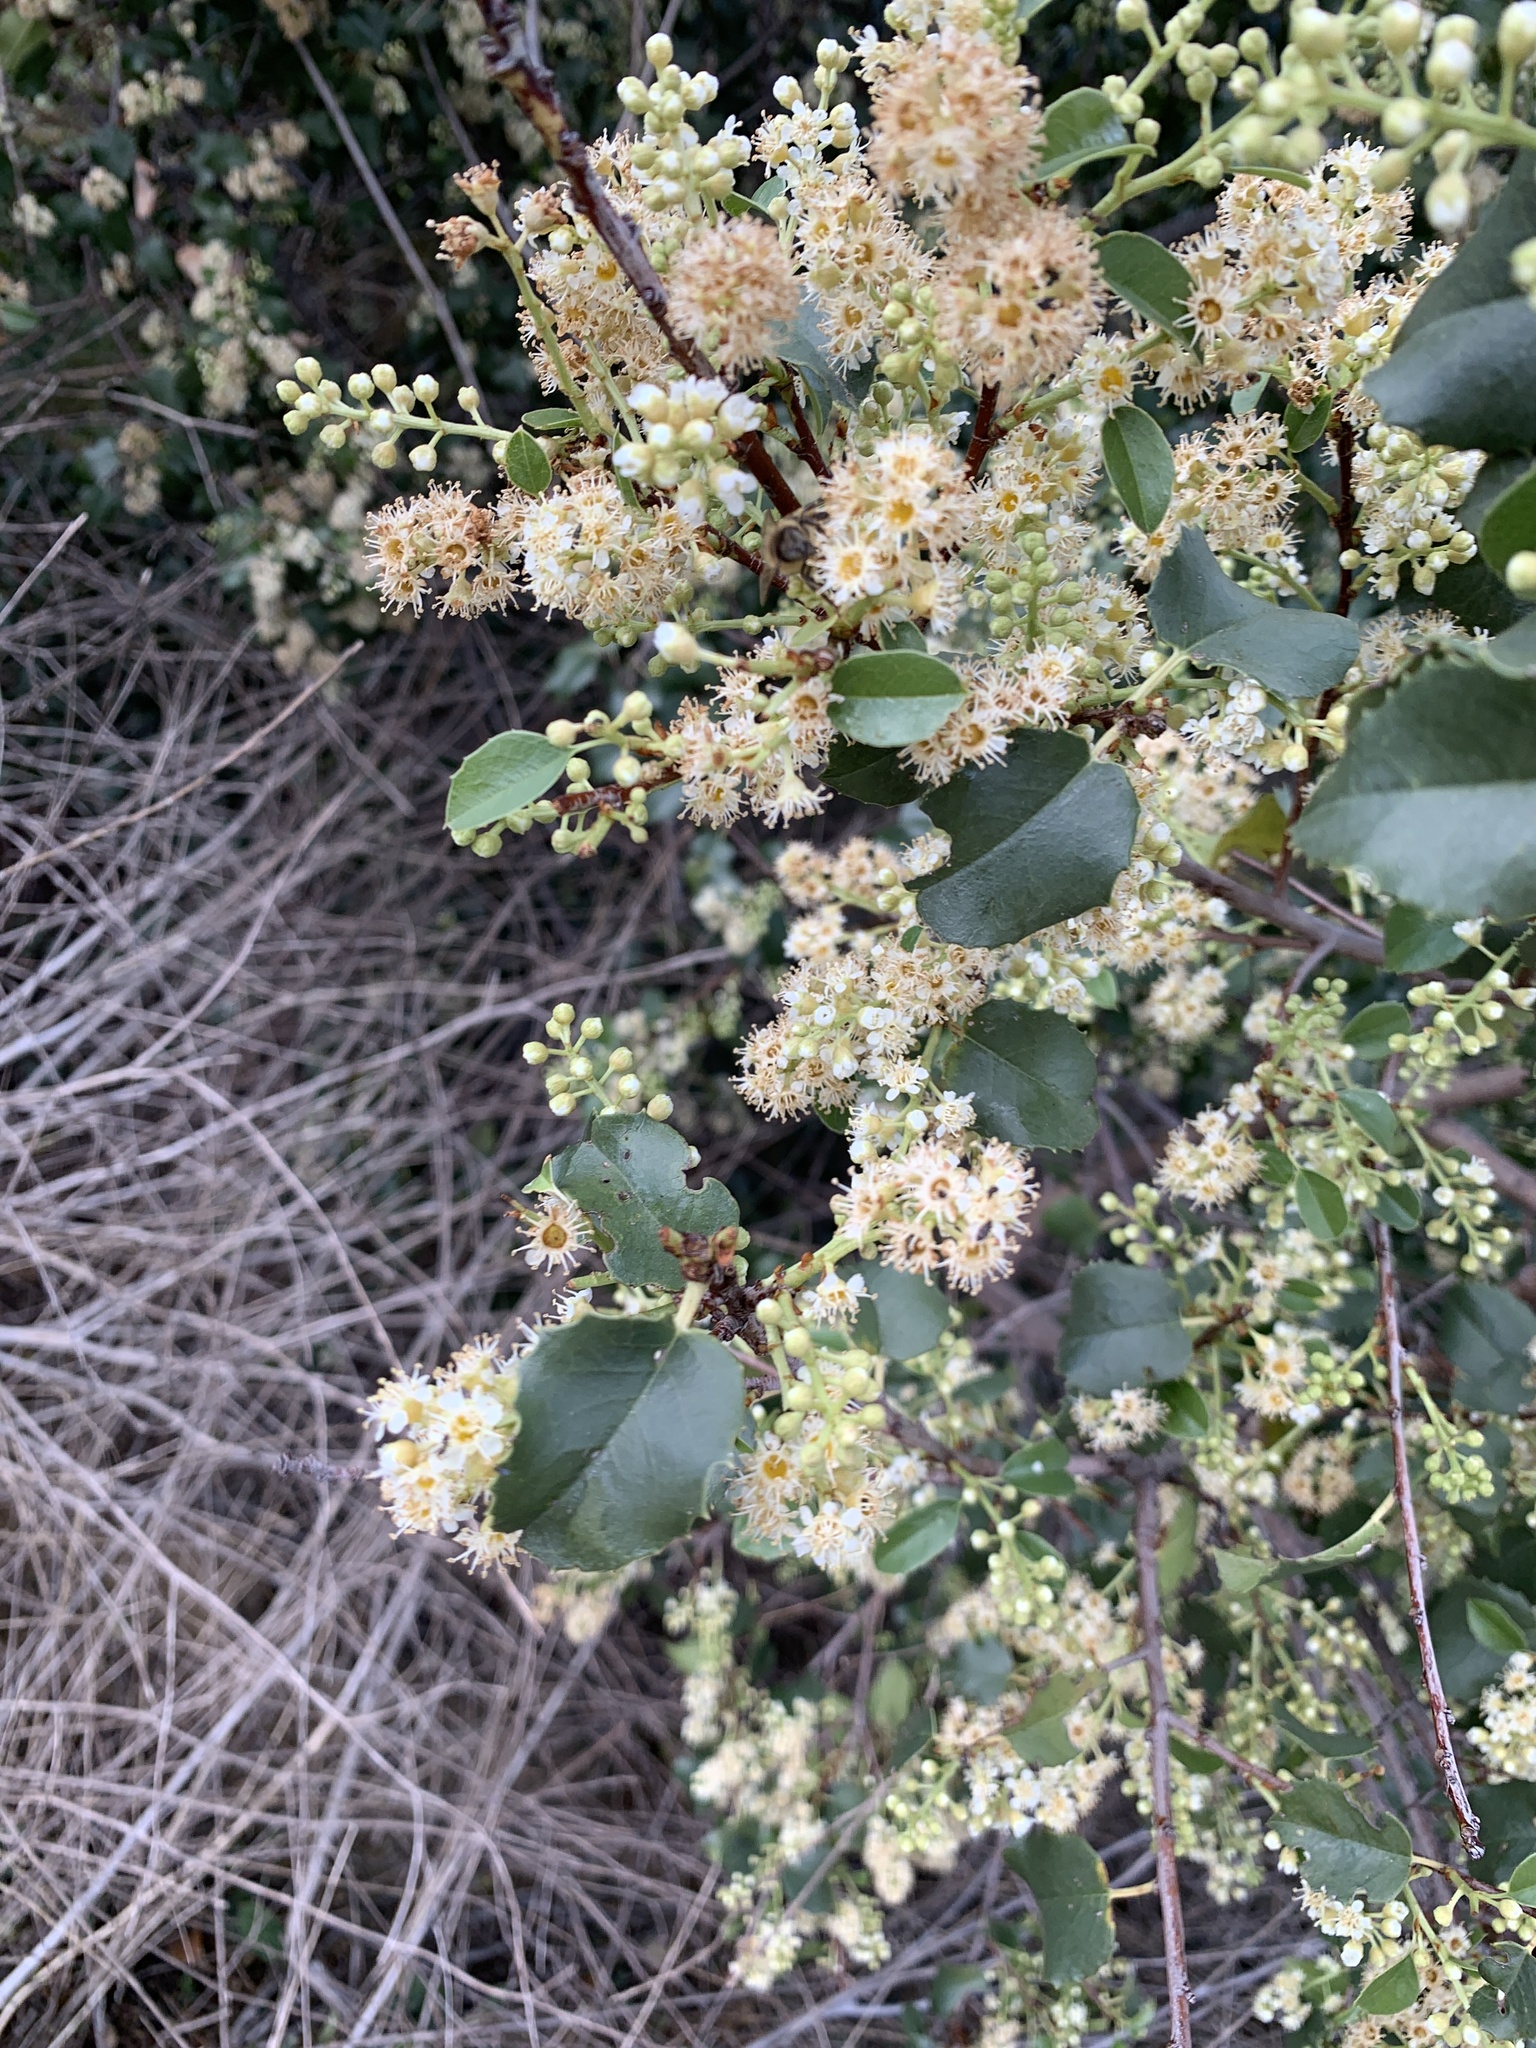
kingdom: Plantae
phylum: Tracheophyta
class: Magnoliopsida
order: Rosales
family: Rosaceae
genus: Prunus
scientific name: Prunus ilicifolia
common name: Hollyleaf cherry
